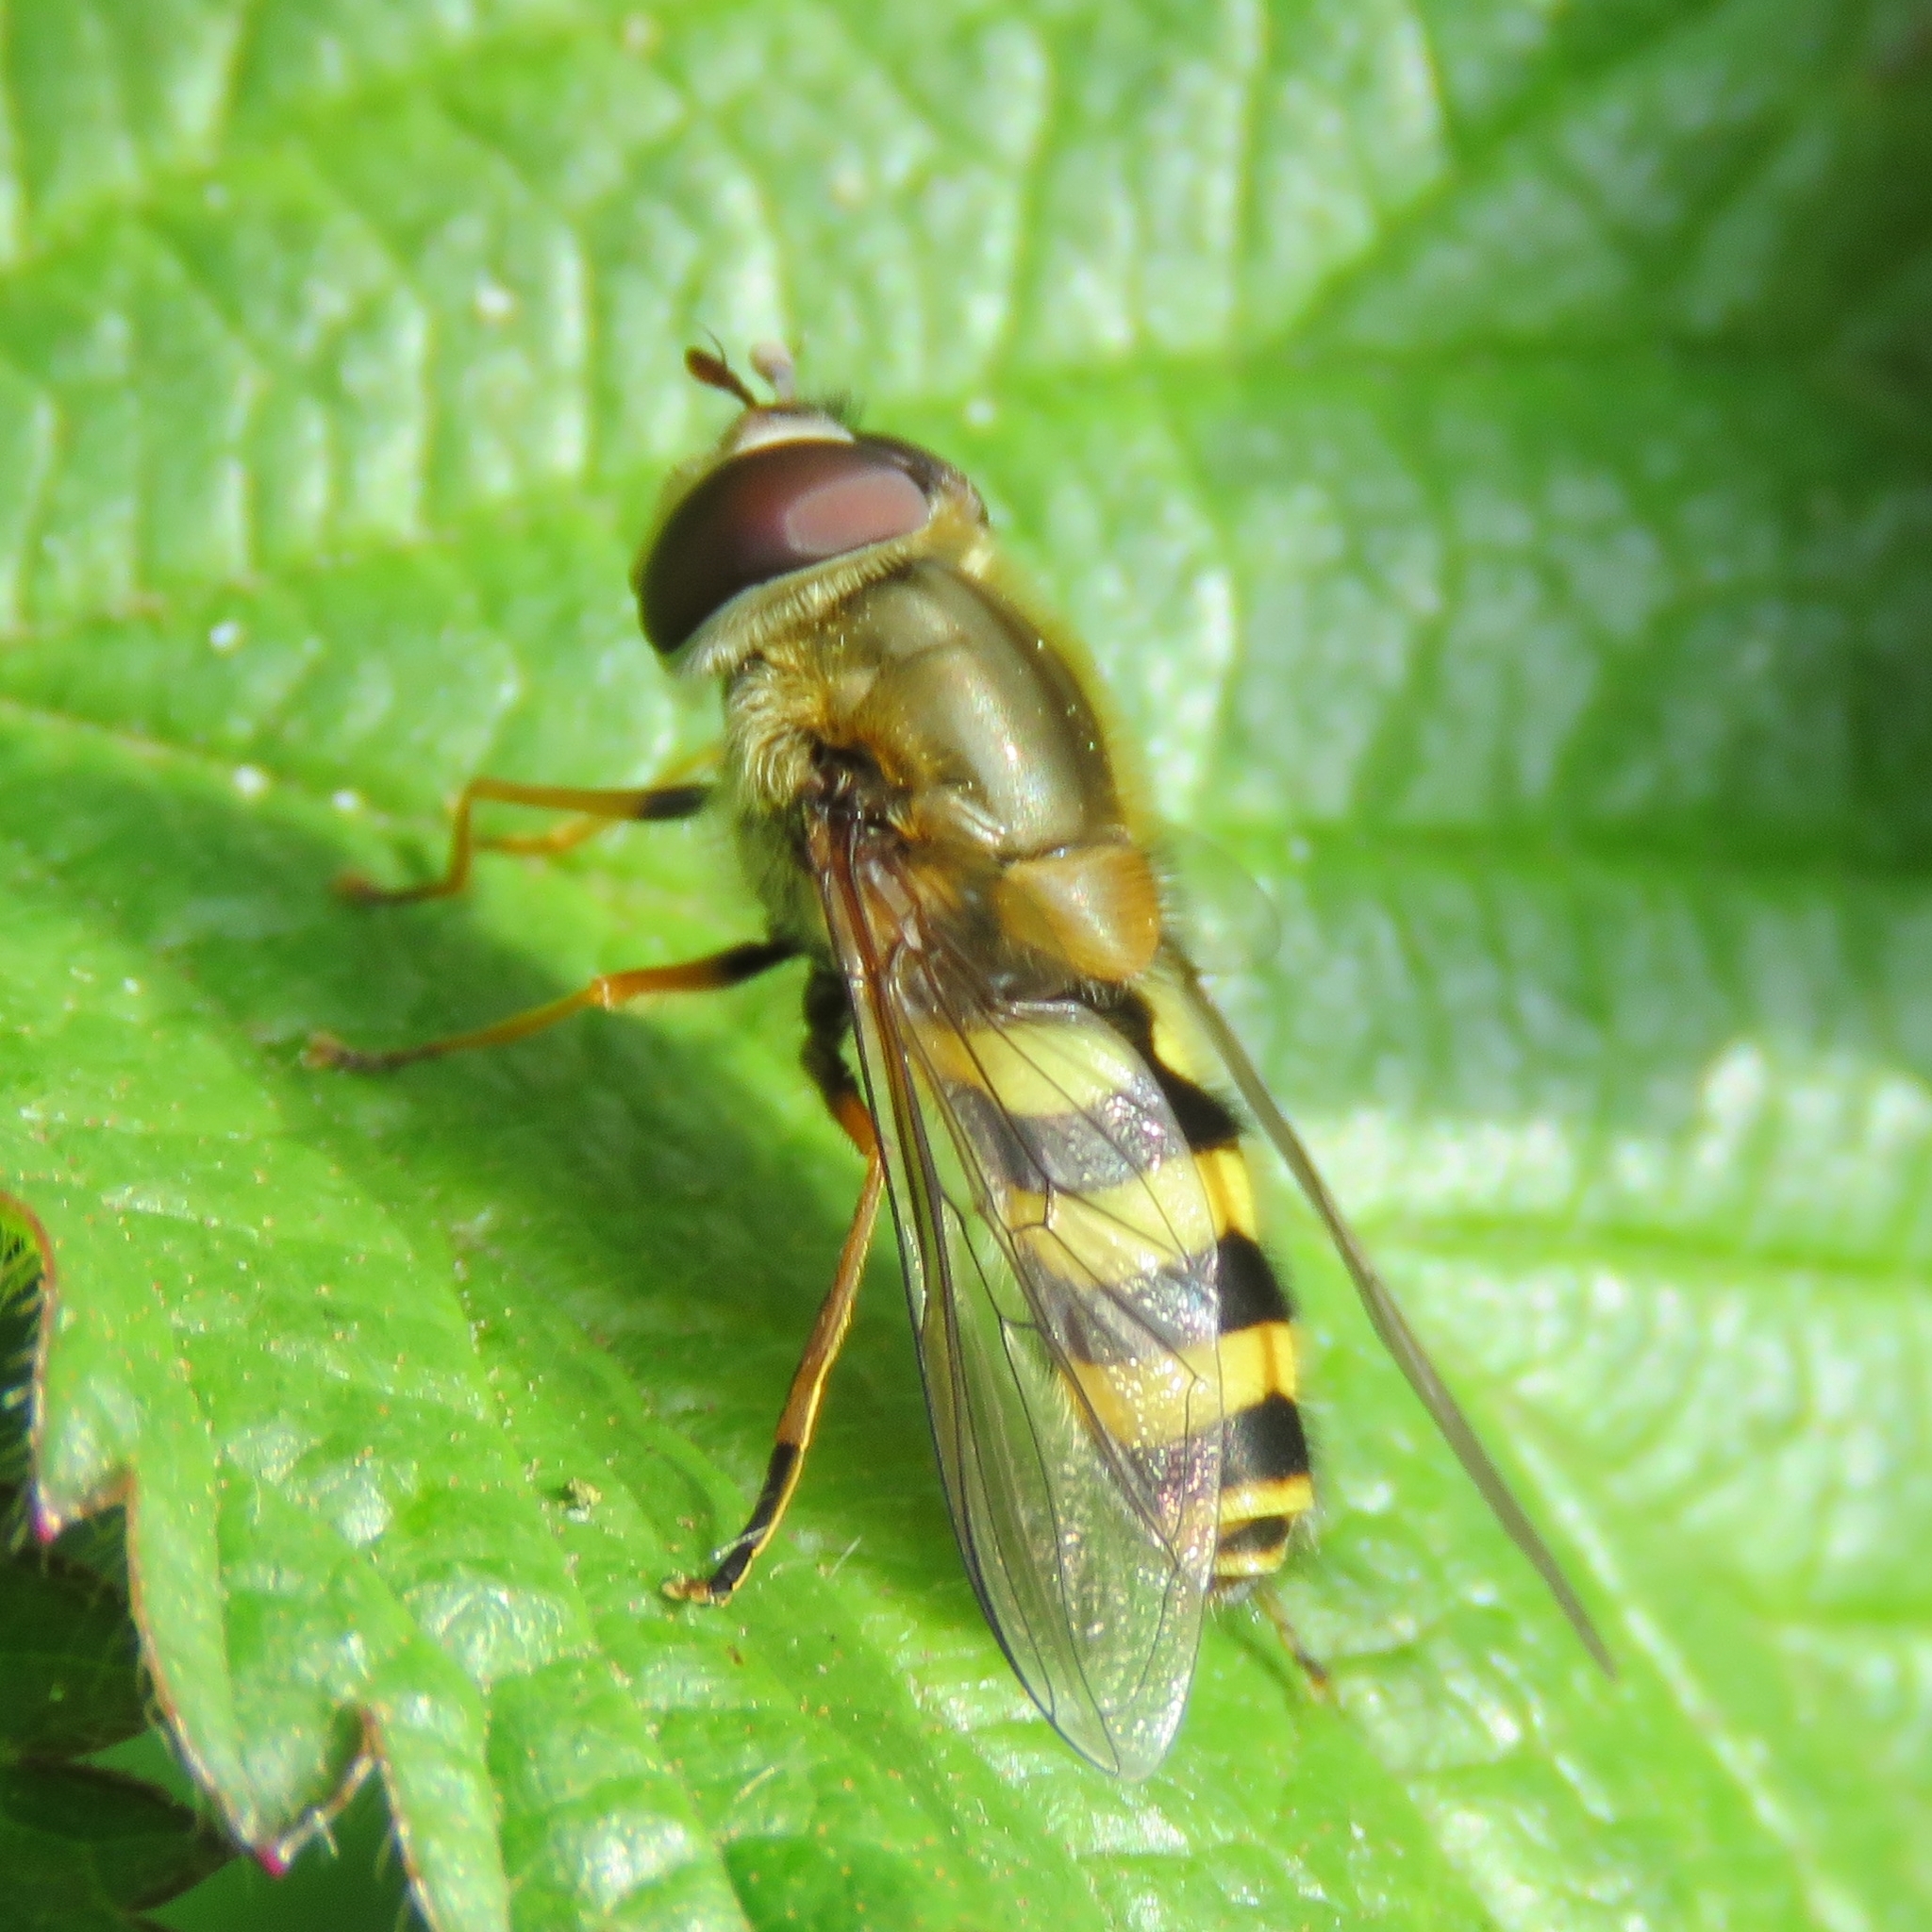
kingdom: Animalia
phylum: Arthropoda
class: Insecta
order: Diptera
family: Syrphidae
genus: Syrphus
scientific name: Syrphus
